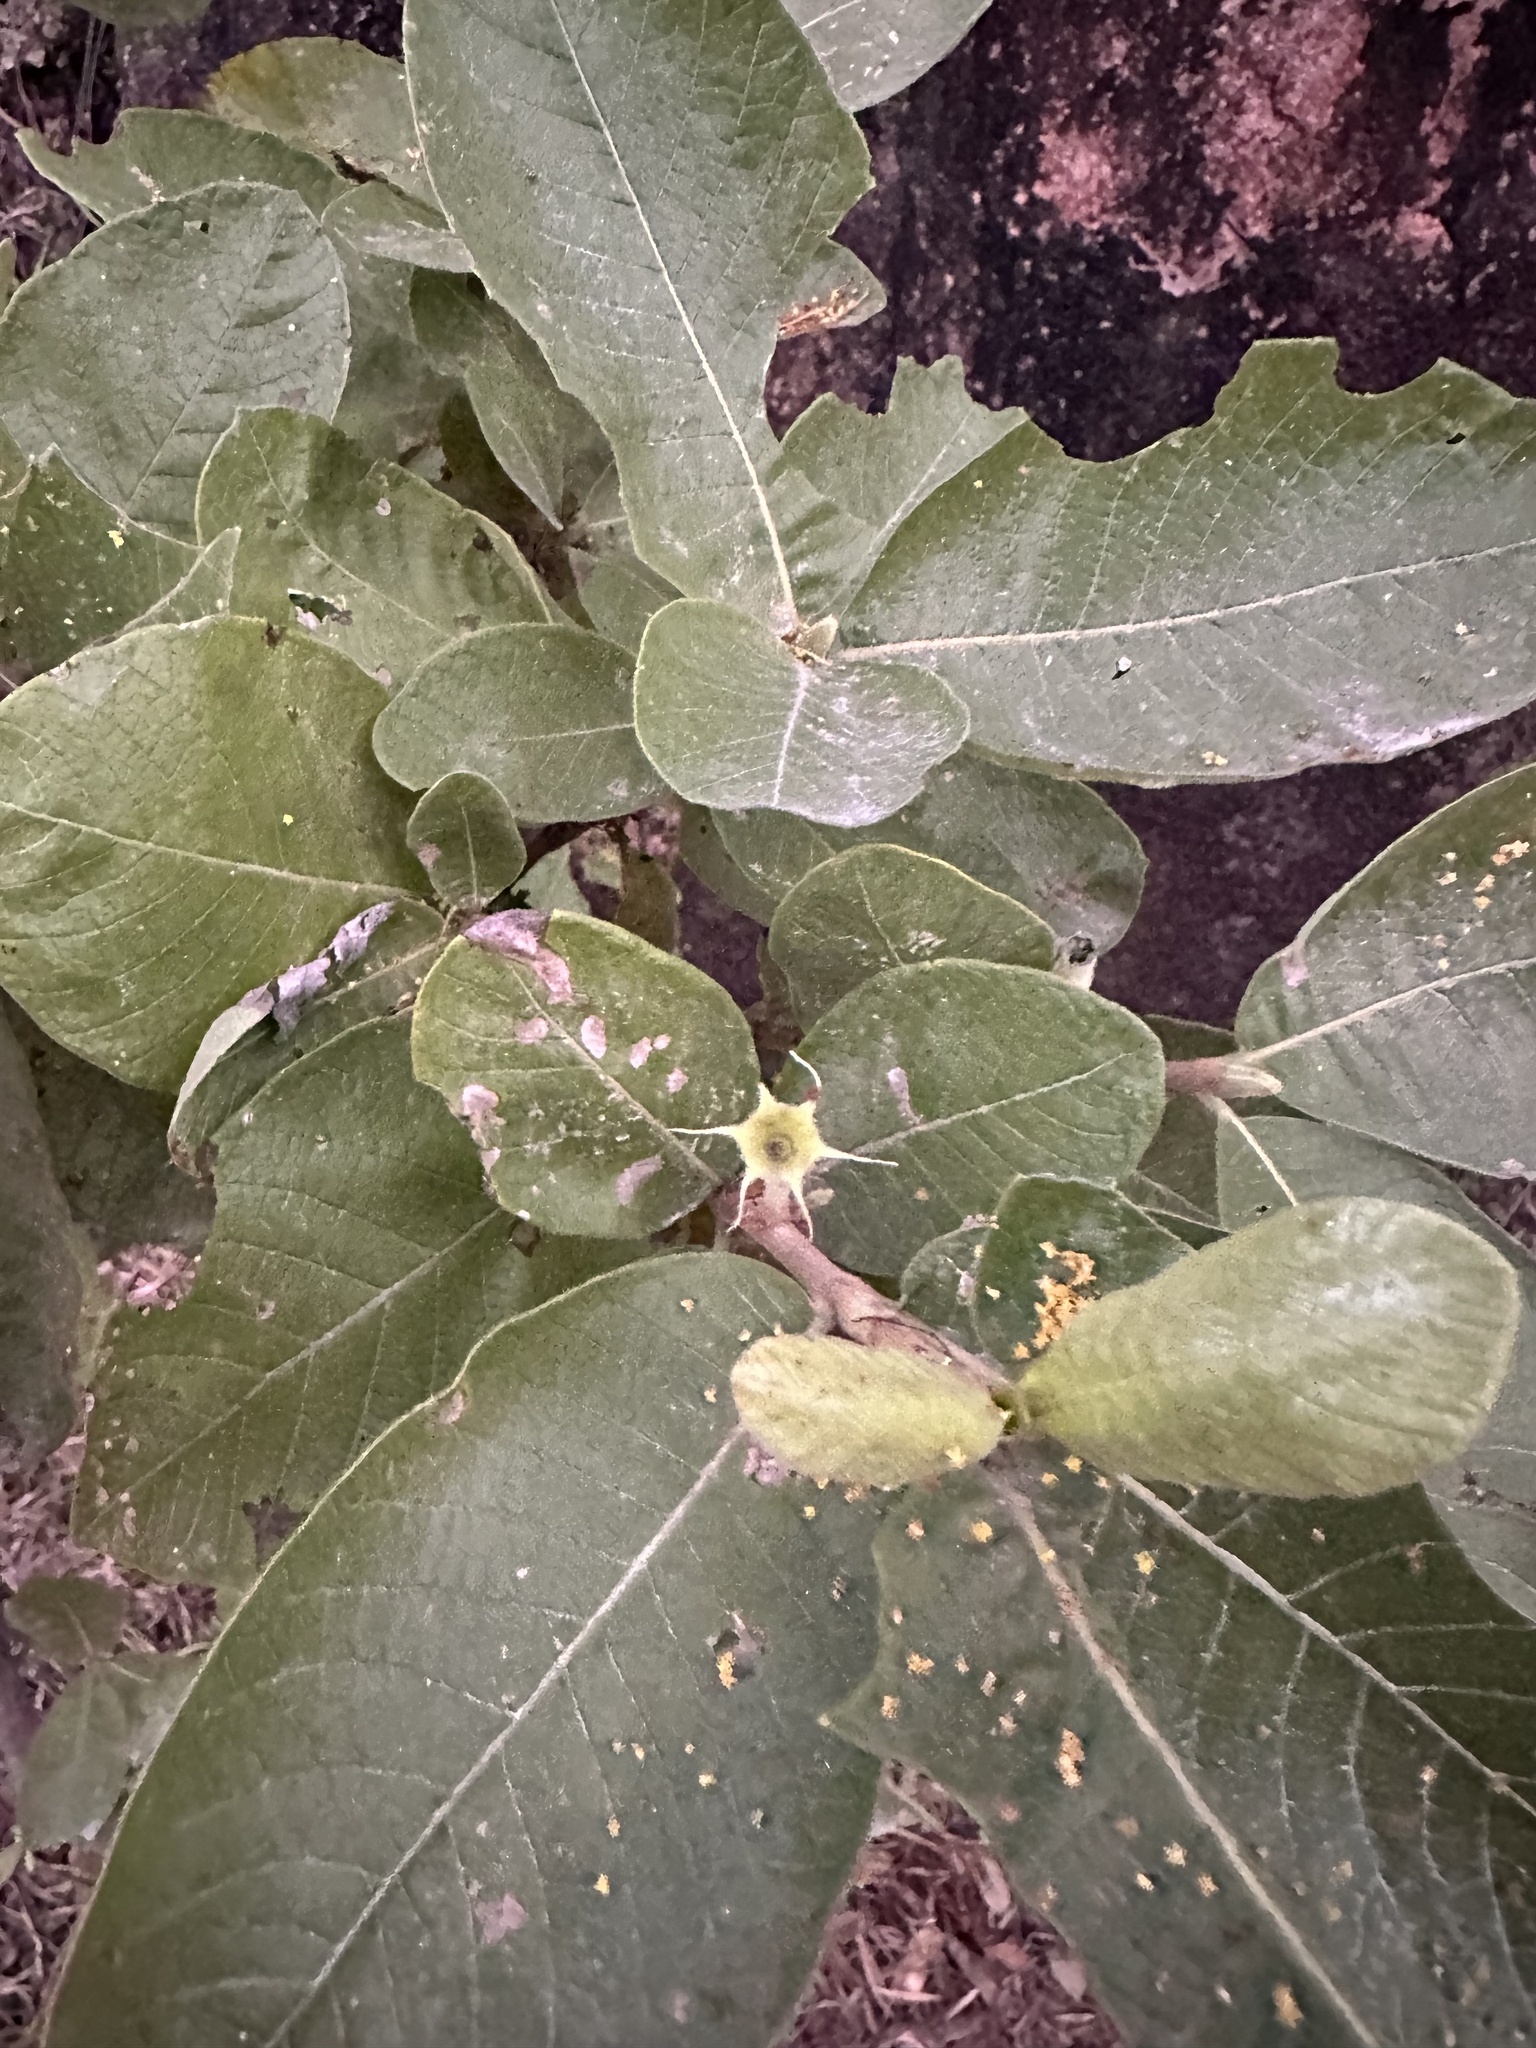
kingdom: Plantae
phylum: Tracheophyta
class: Magnoliopsida
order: Gentianales
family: Rubiaceae
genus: Larsenaikia
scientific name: Larsenaikia ochreata
